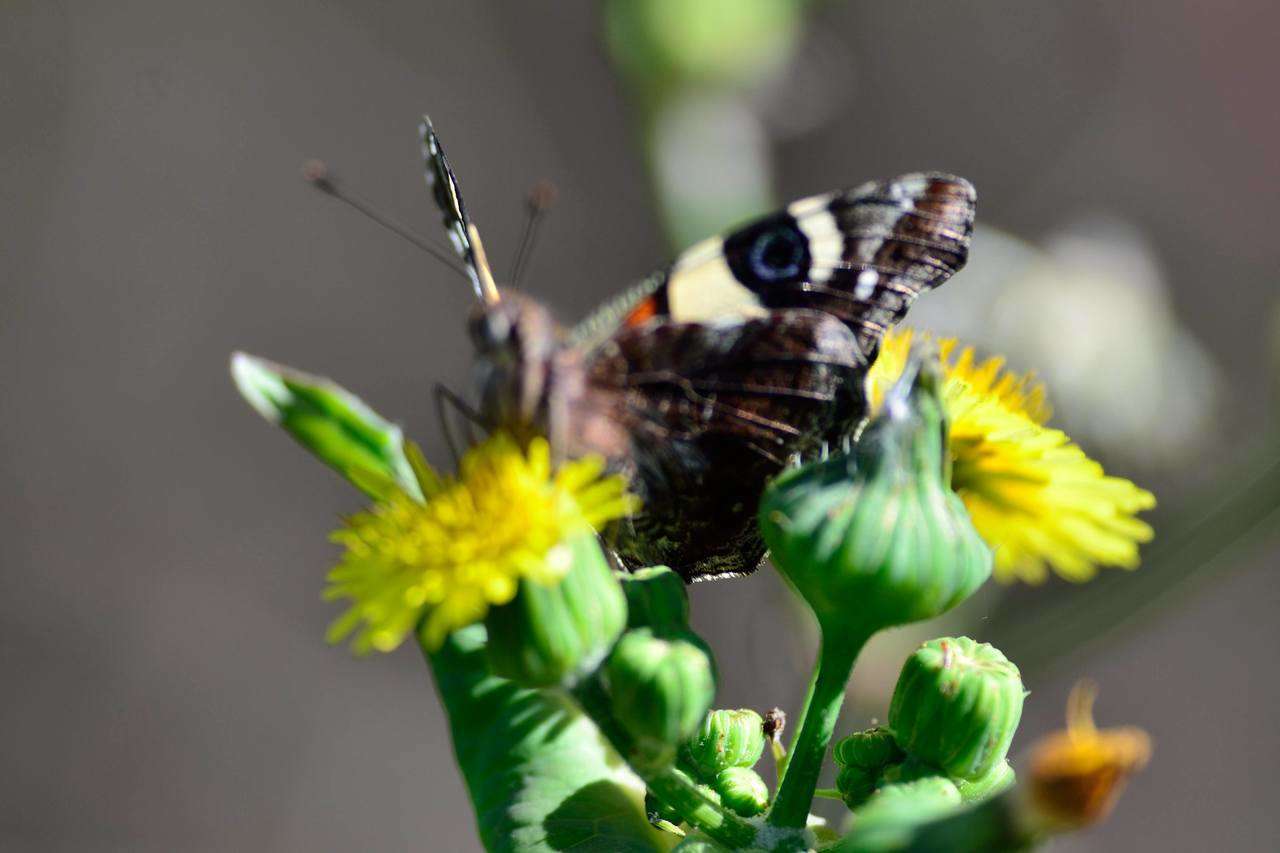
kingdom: Animalia
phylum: Arthropoda
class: Insecta
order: Lepidoptera
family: Nymphalidae
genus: Vanessa
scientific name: Vanessa itea
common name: Yellow admiral
